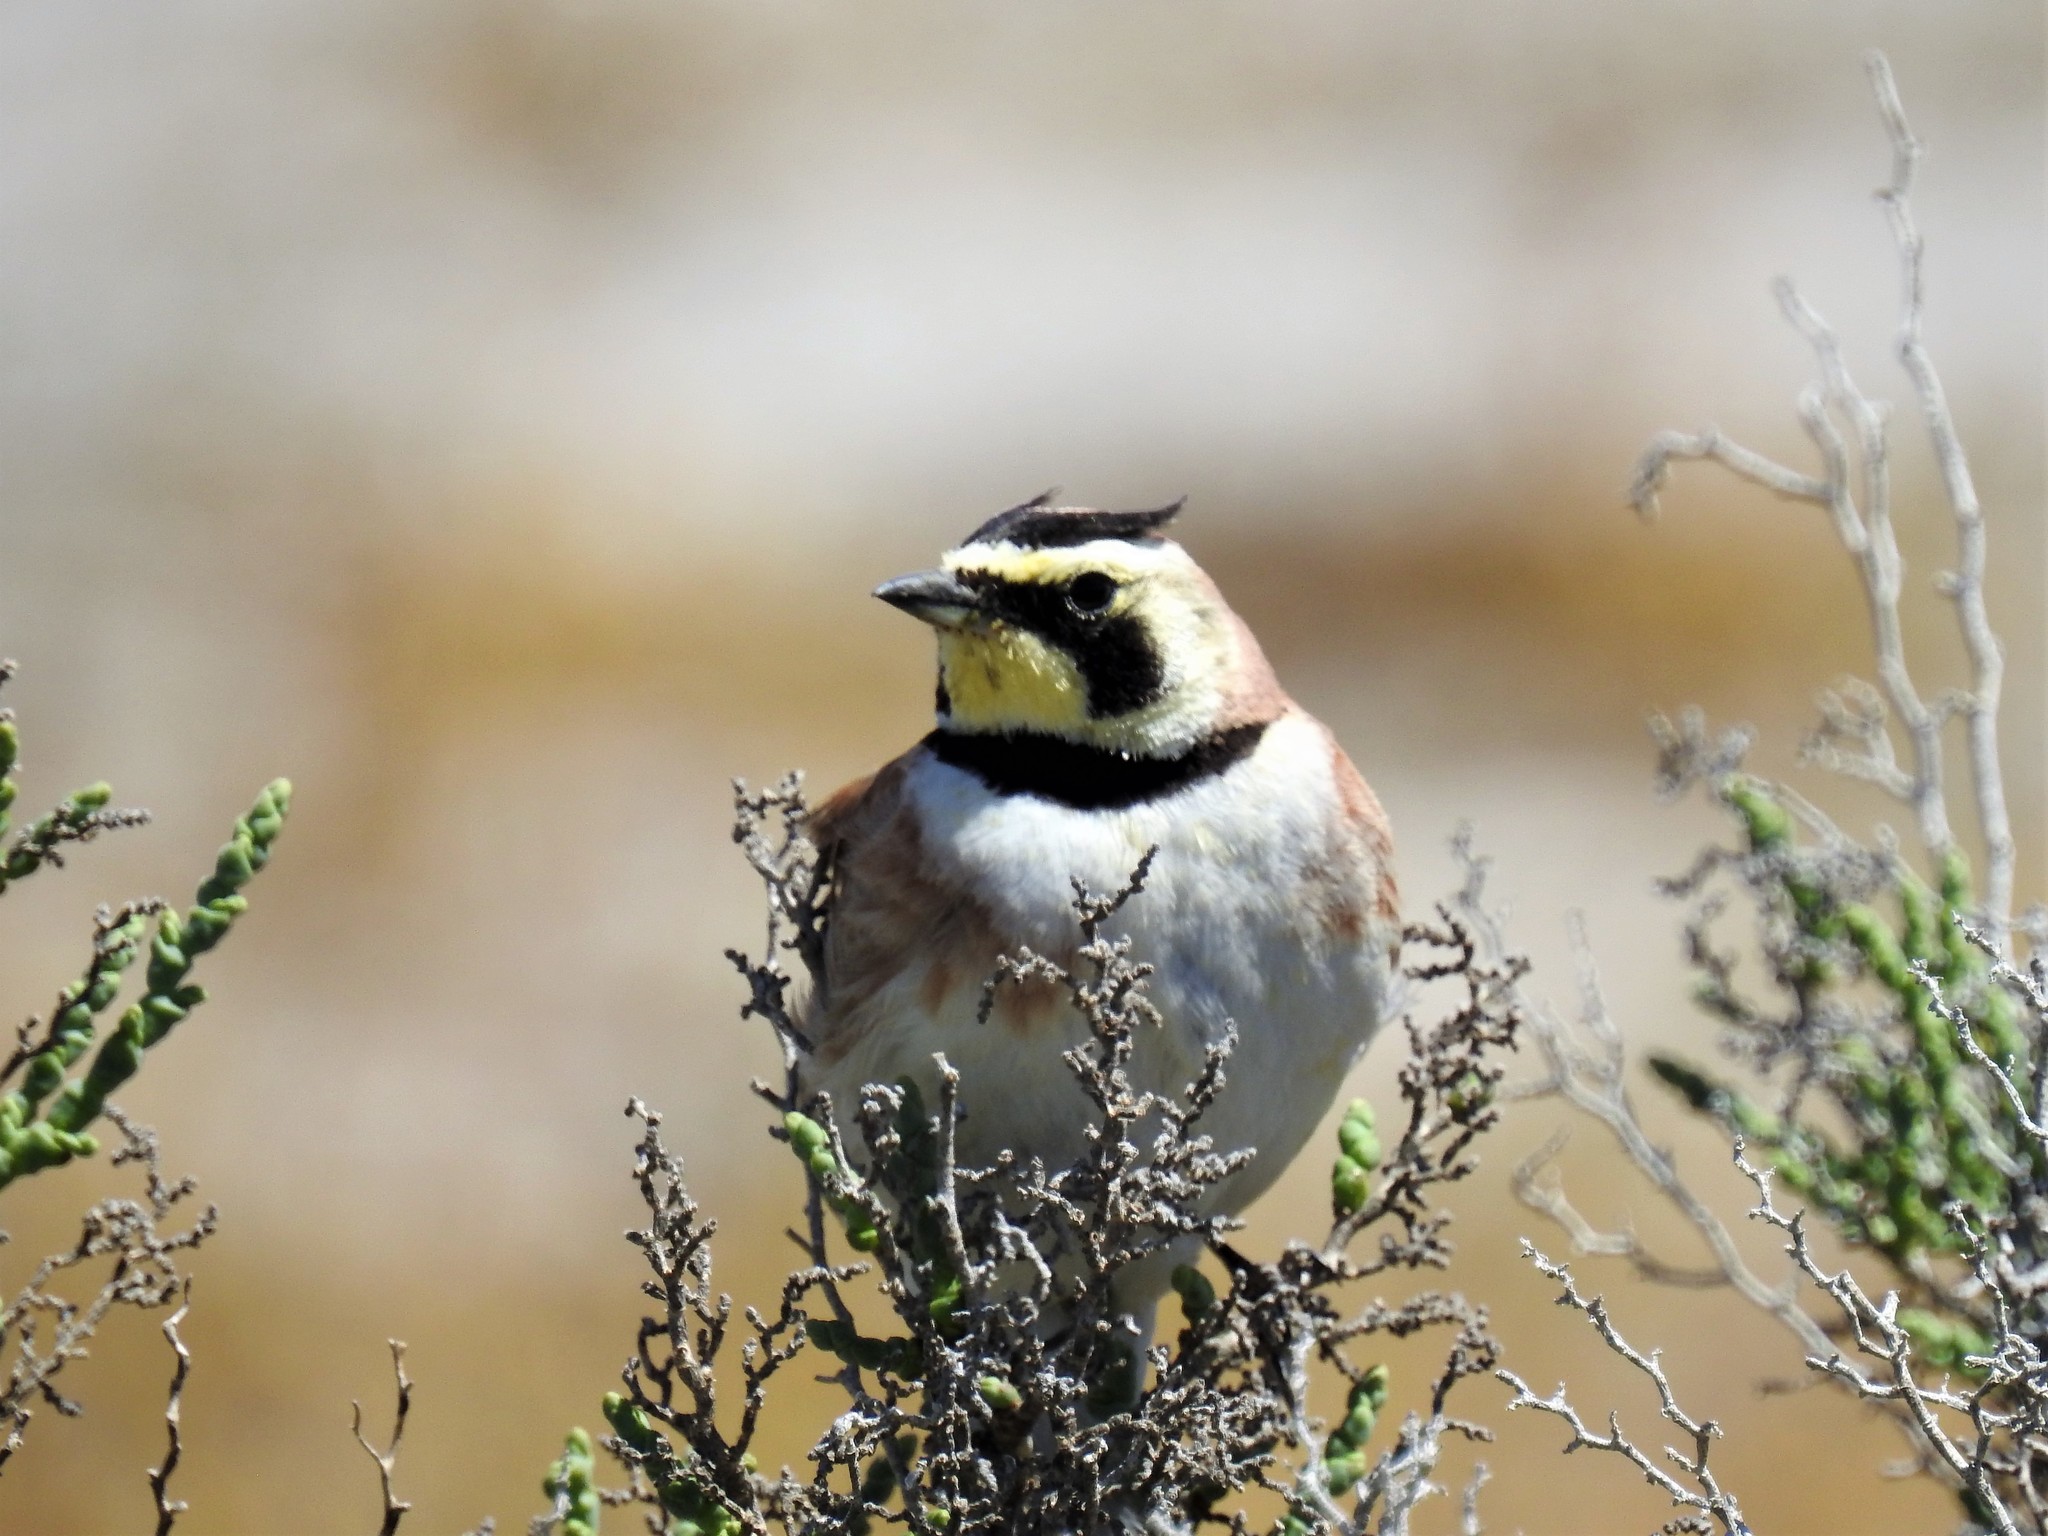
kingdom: Animalia
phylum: Chordata
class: Aves
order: Passeriformes
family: Alaudidae
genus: Eremophila
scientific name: Eremophila alpestris
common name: Horned lark
